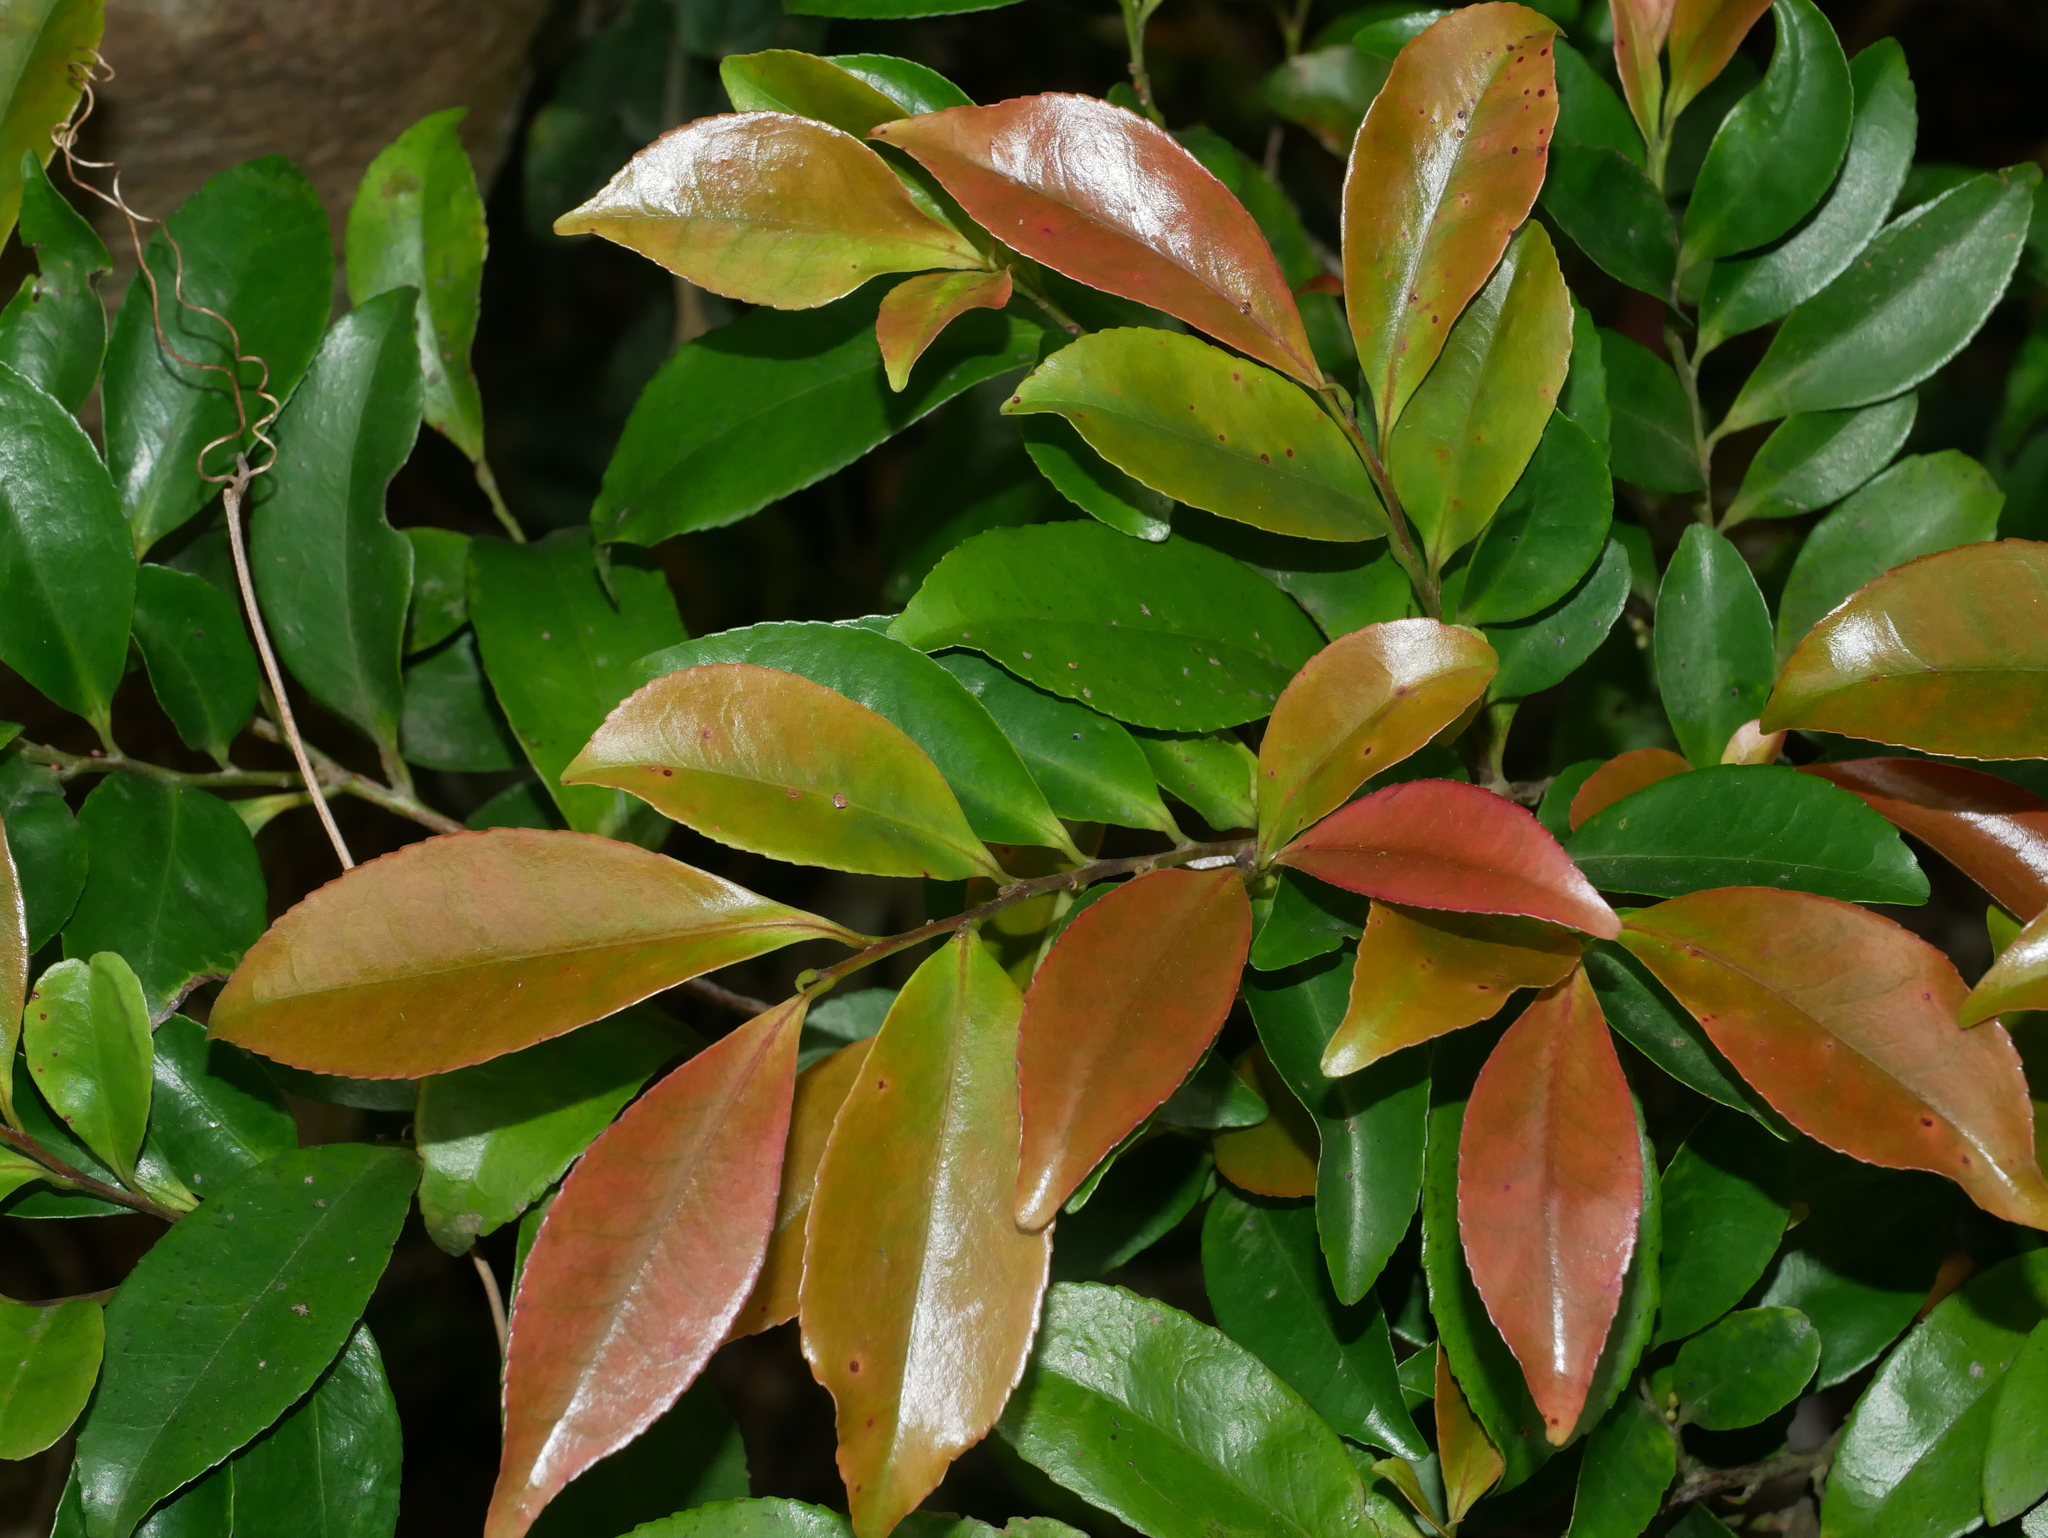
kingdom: Plantae
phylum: Tracheophyta
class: Magnoliopsida
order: Ericales
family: Pentaphylacaceae
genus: Eurya
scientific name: Eurya nitida
